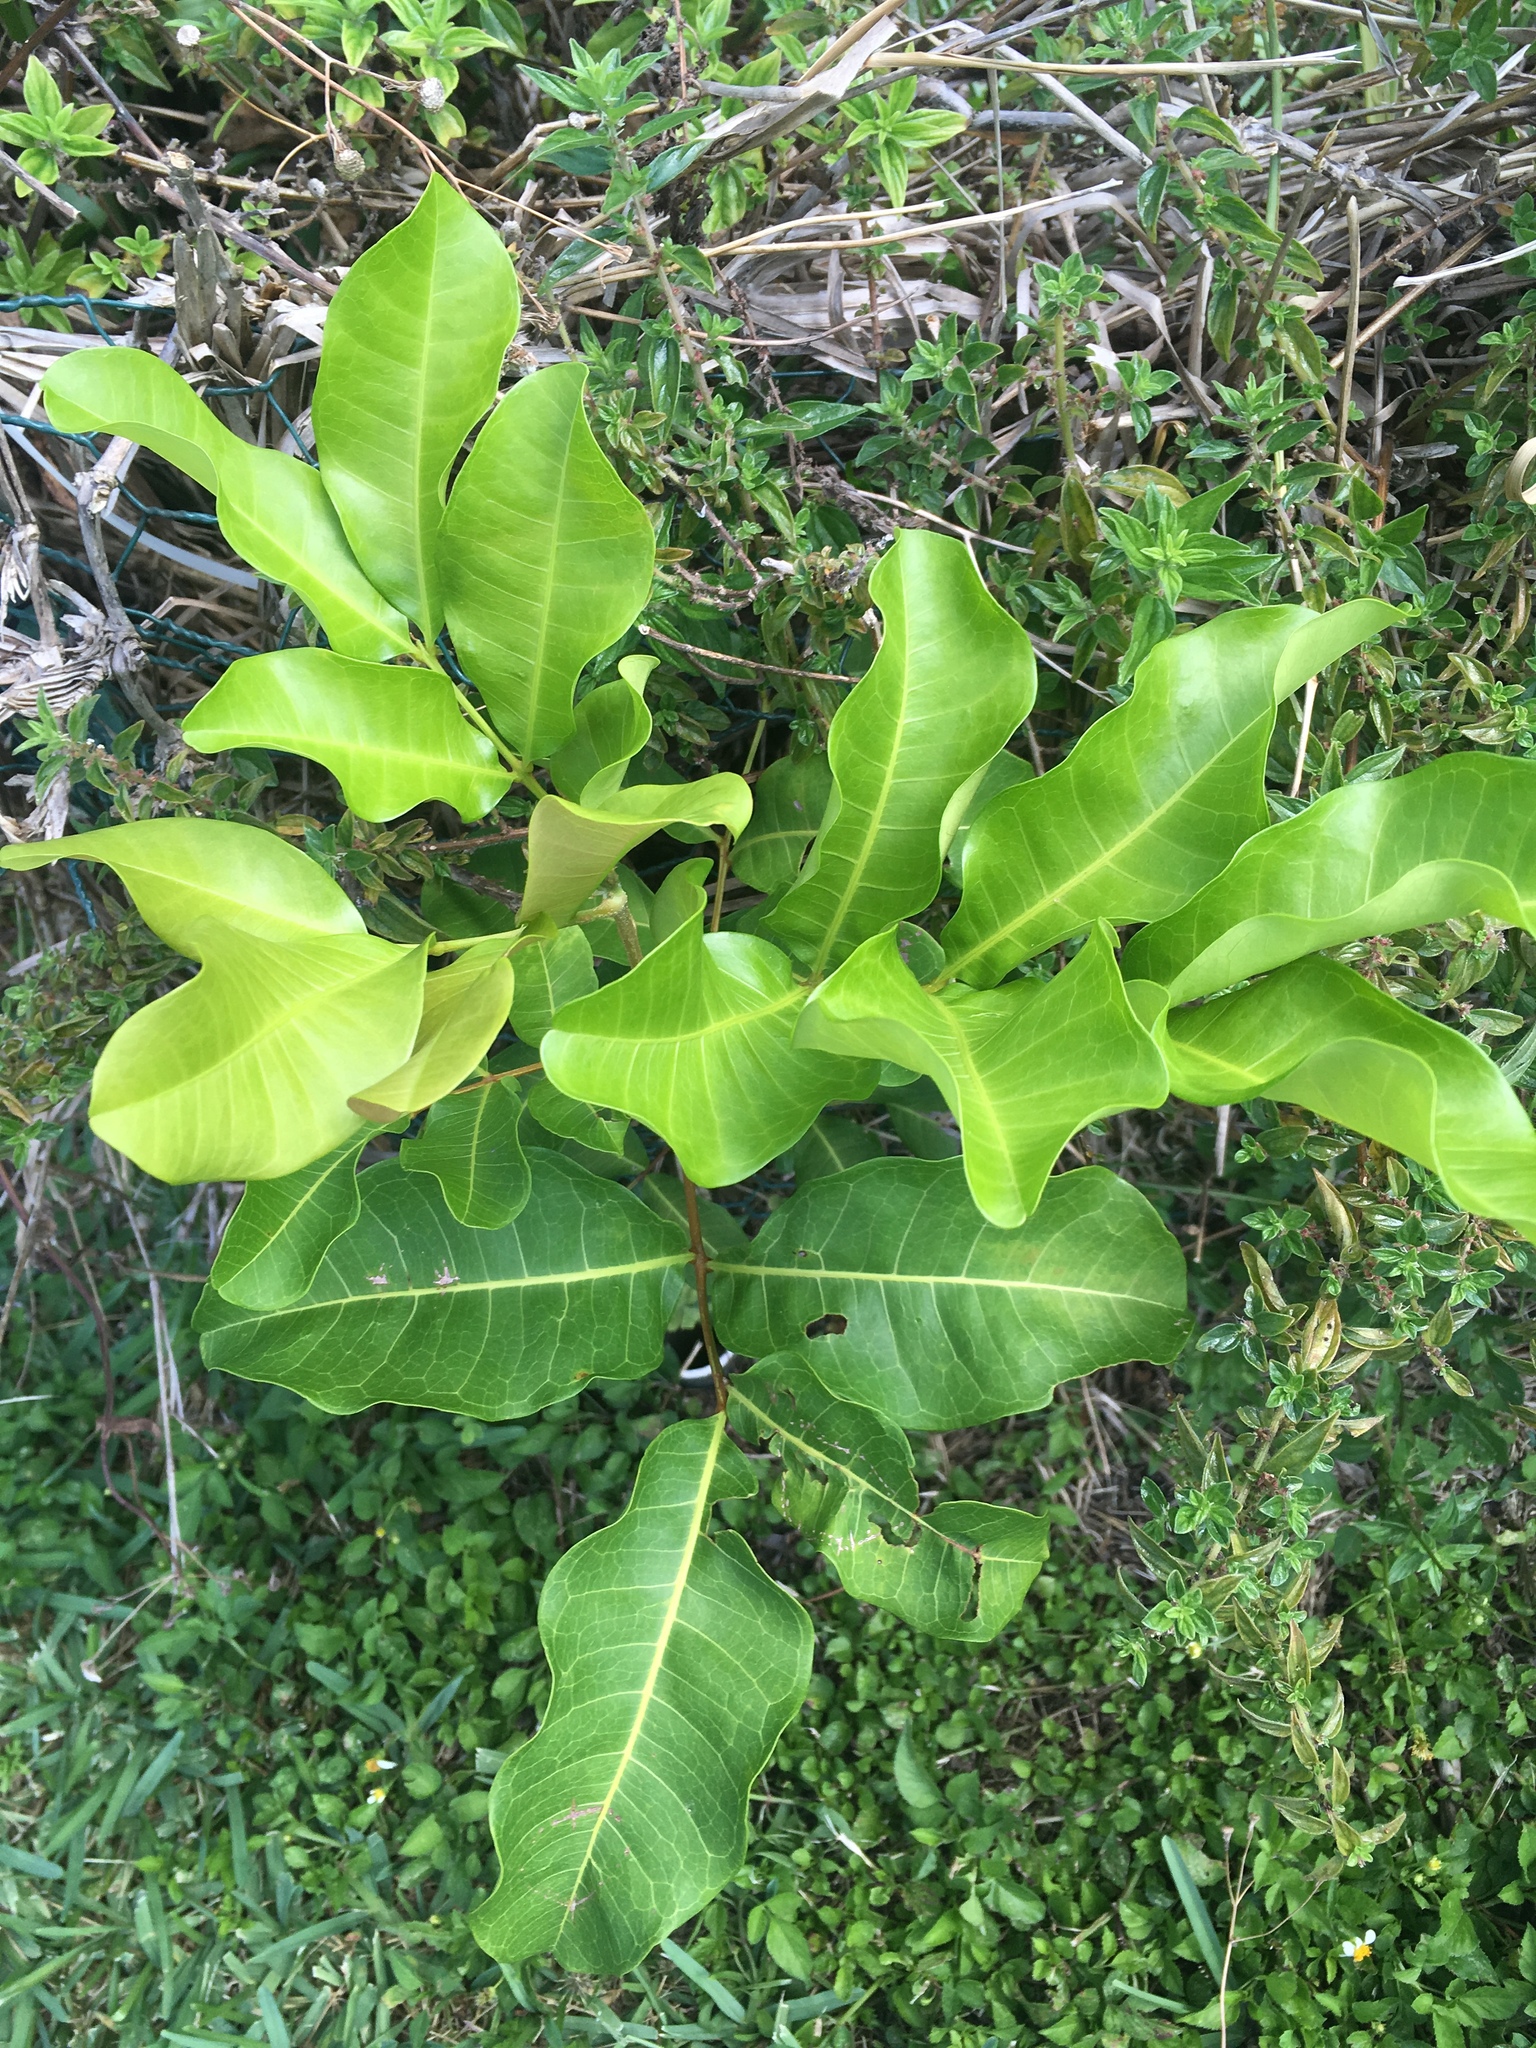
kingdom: Plantae
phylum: Tracheophyta
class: Magnoliopsida
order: Sapindales
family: Sapindaceae
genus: Cupaniopsis
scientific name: Cupaniopsis anacardioides
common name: Carrotwood
